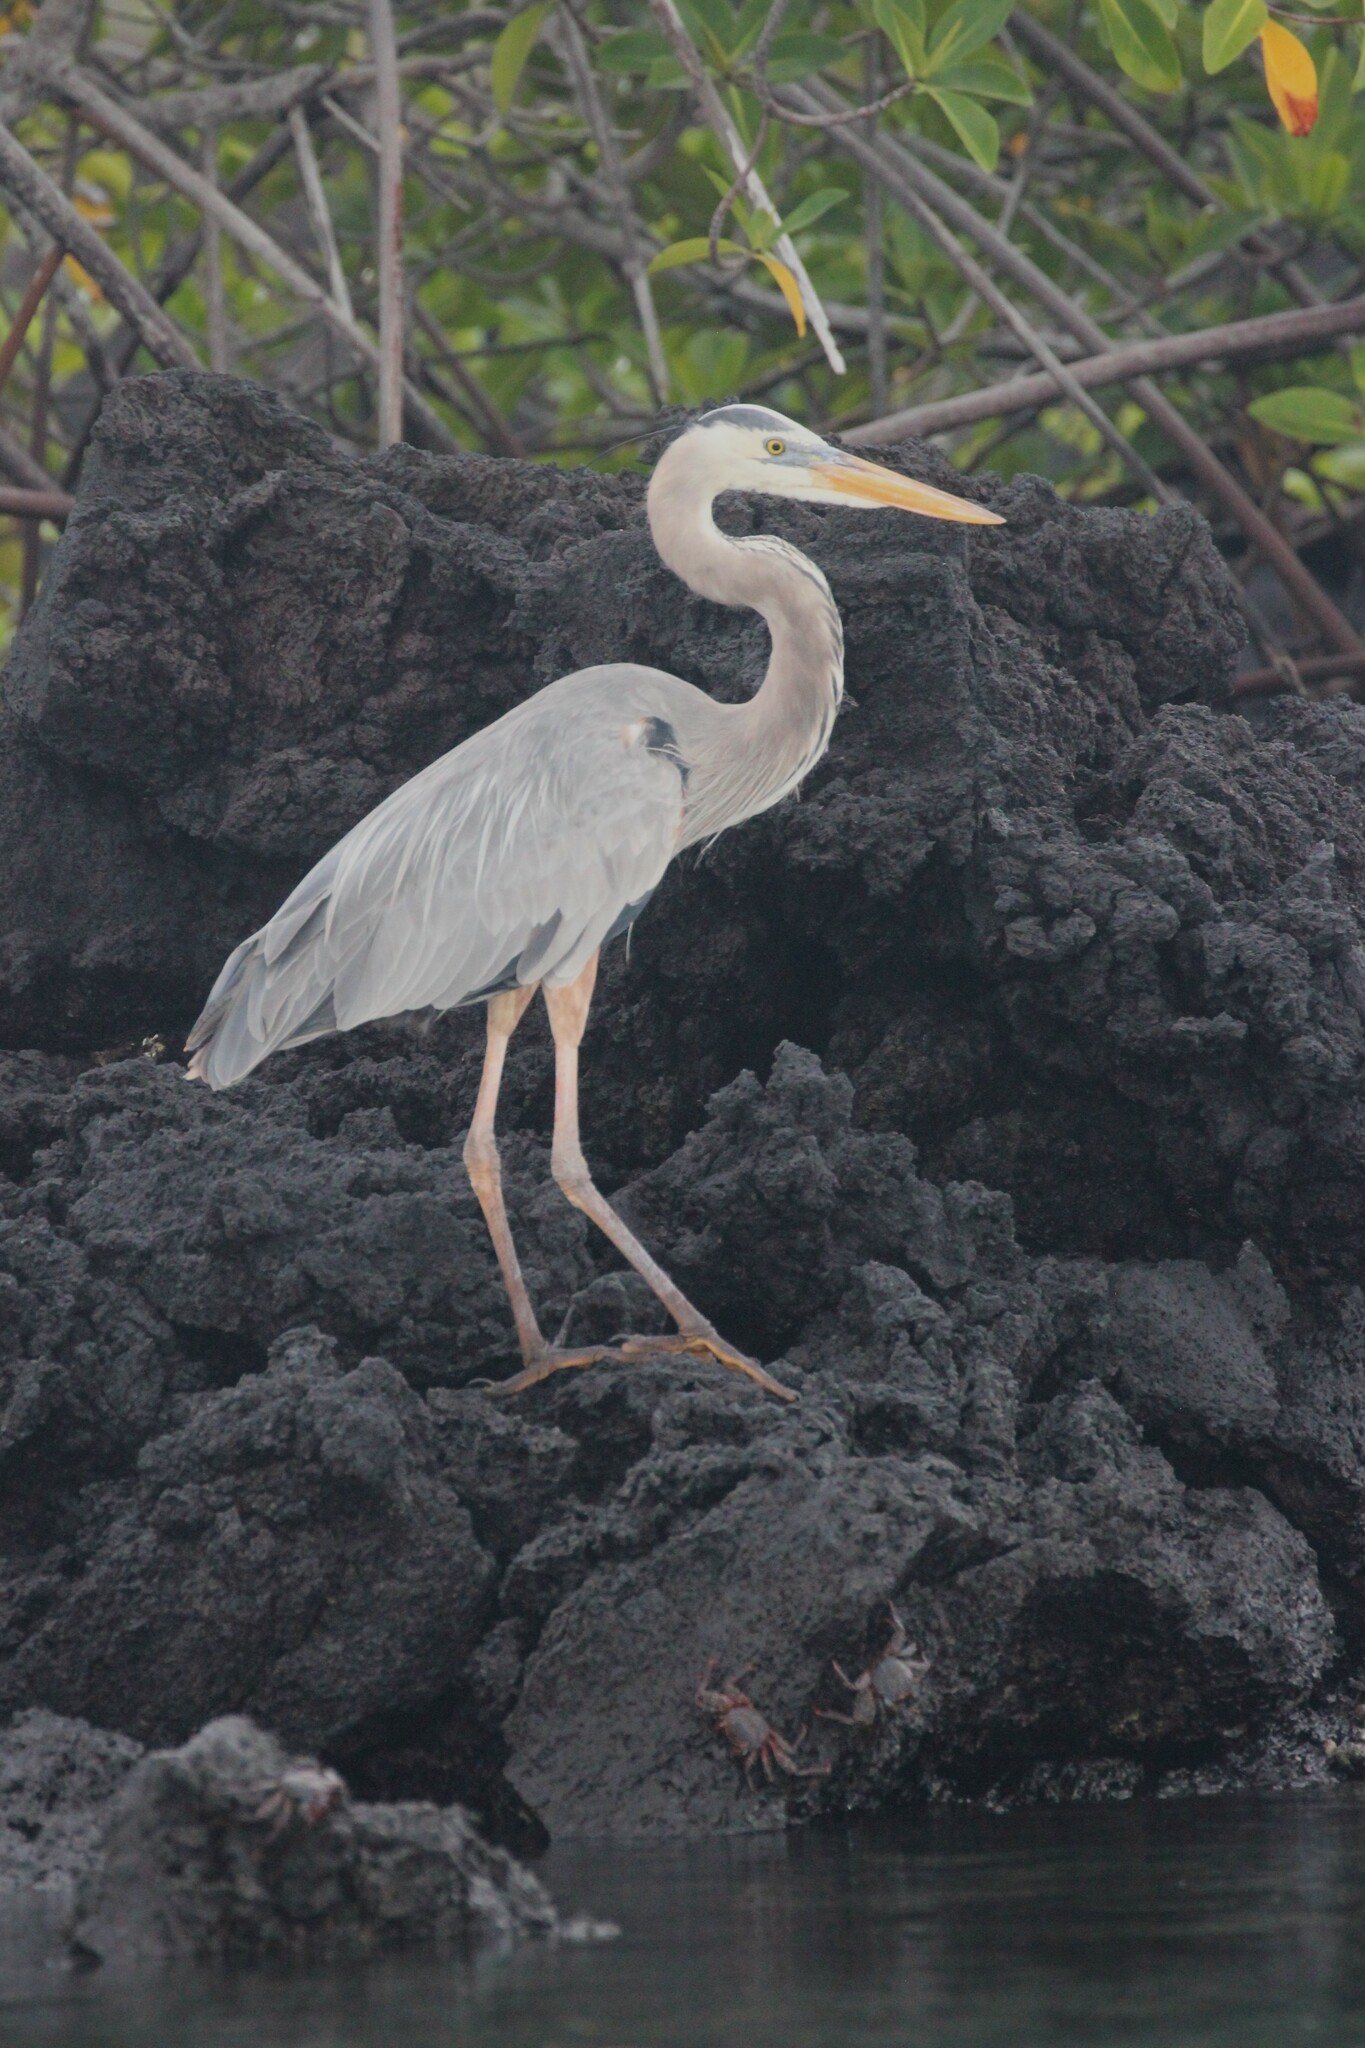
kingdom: Animalia
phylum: Chordata
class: Aves
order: Pelecaniformes
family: Ardeidae
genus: Ardea
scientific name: Ardea herodias
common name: Great blue heron
